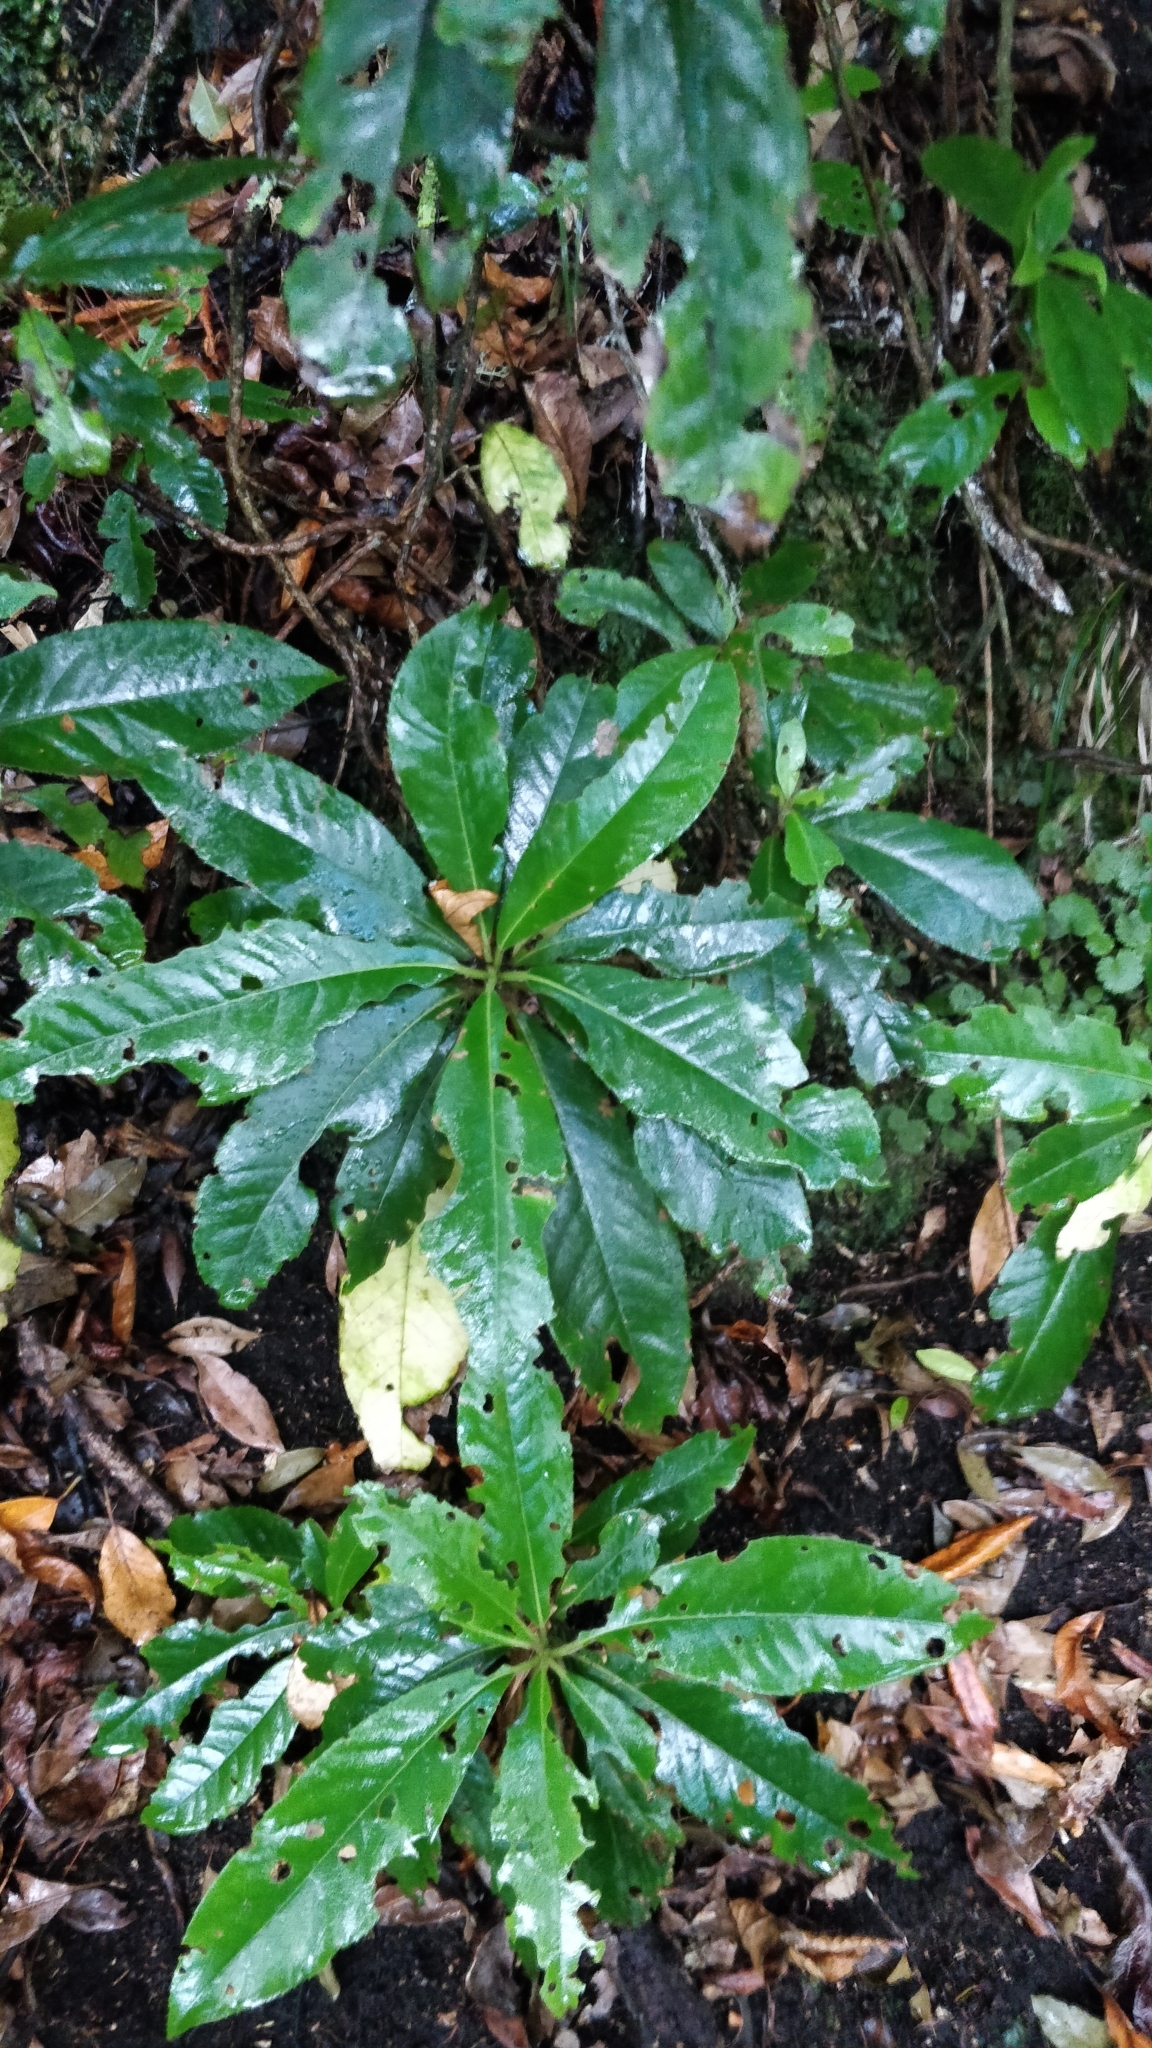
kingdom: Plantae
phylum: Tracheophyta
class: Magnoliopsida
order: Ericales
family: Clethraceae
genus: Clethra
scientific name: Clethra arborea
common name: Lily-of-the-valley-tree
